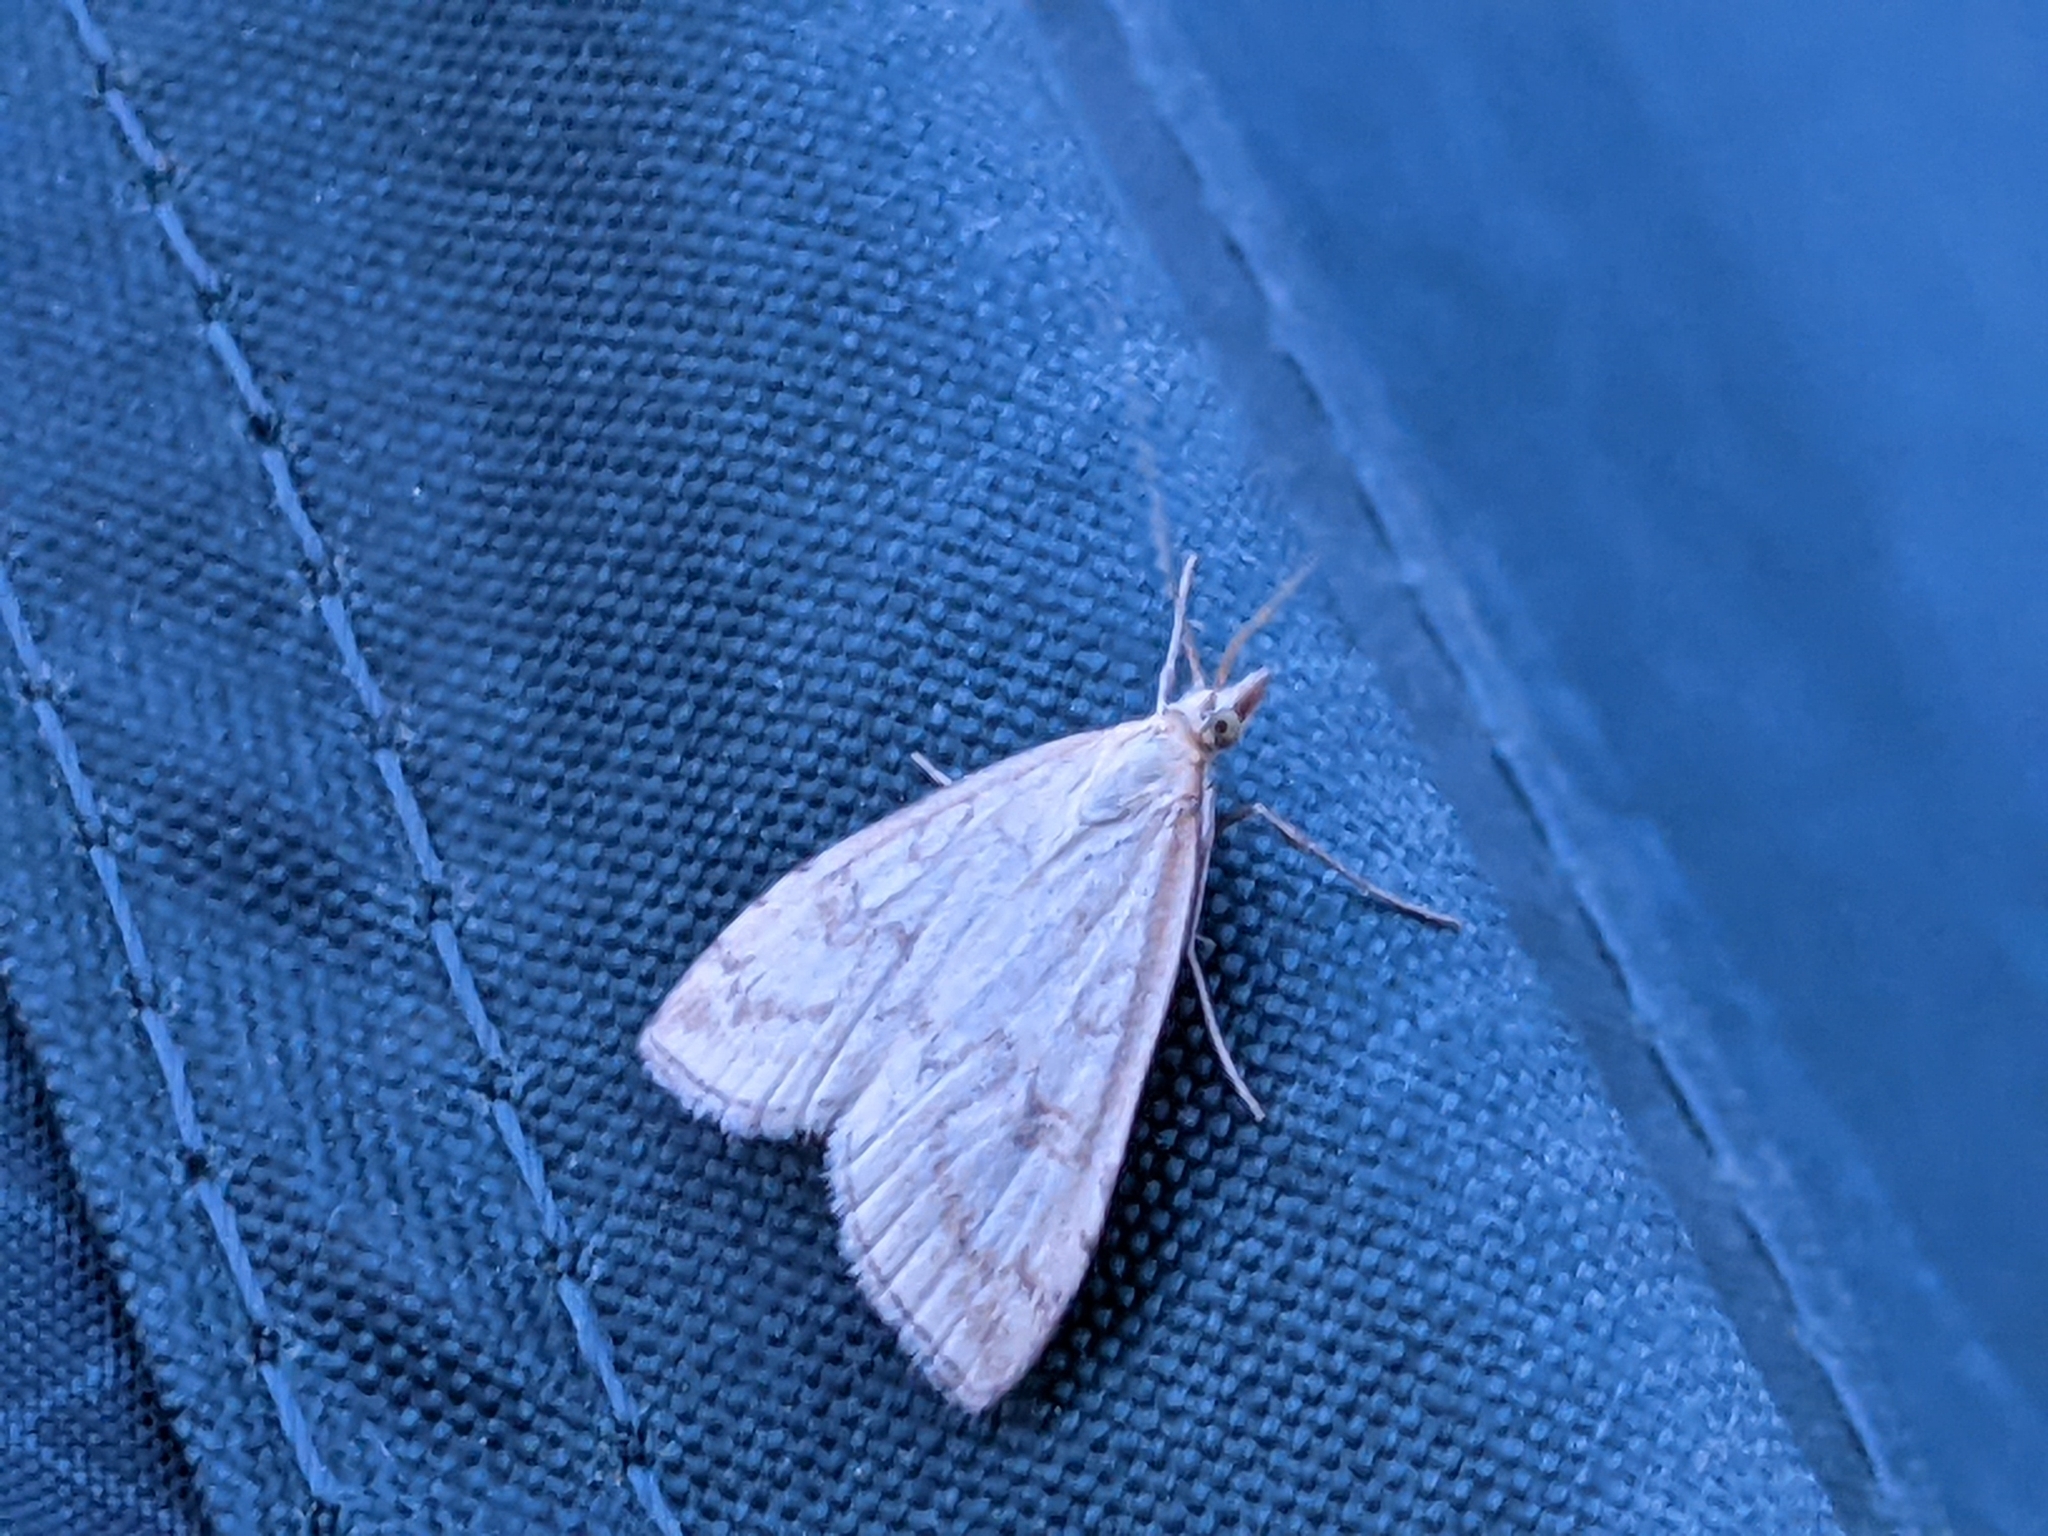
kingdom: Animalia
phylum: Arthropoda
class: Insecta
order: Lepidoptera
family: Crambidae
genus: Udea
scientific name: Udea lutealis
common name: Pale straw pearl
